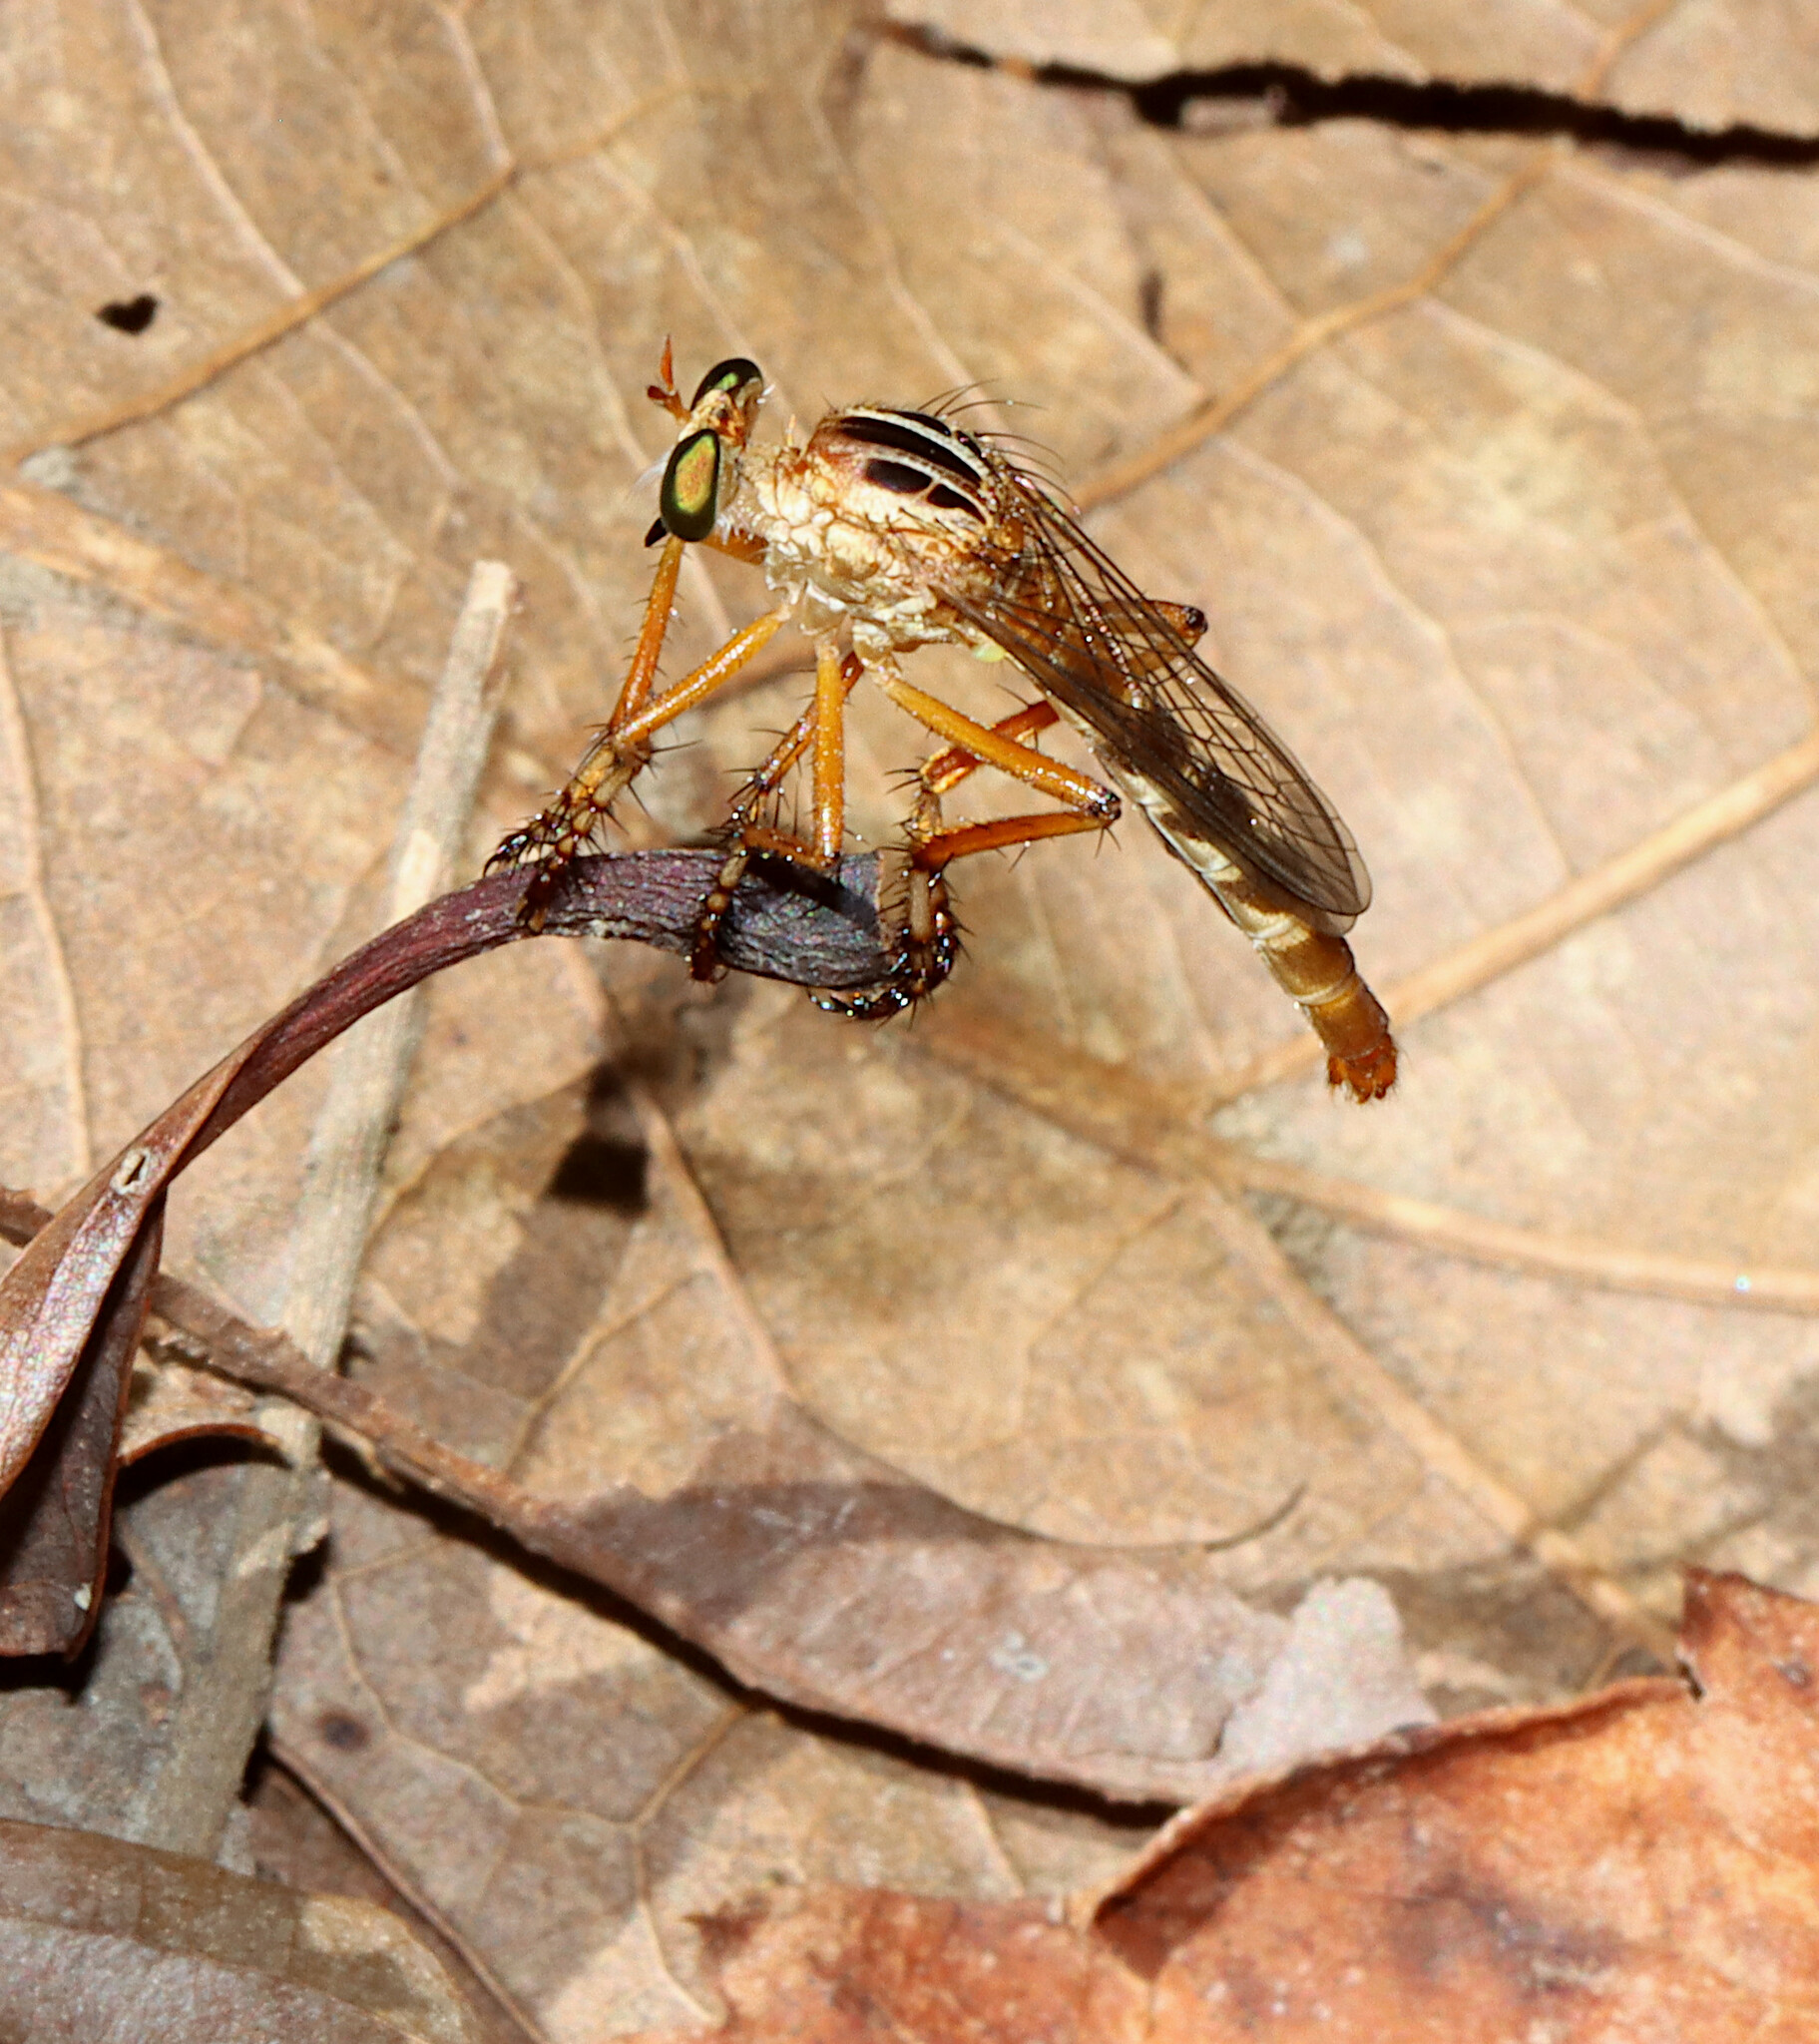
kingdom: Animalia
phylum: Arthropoda
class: Insecta
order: Diptera
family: Asilidae
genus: Diogmites
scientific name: Diogmites missouriensis
